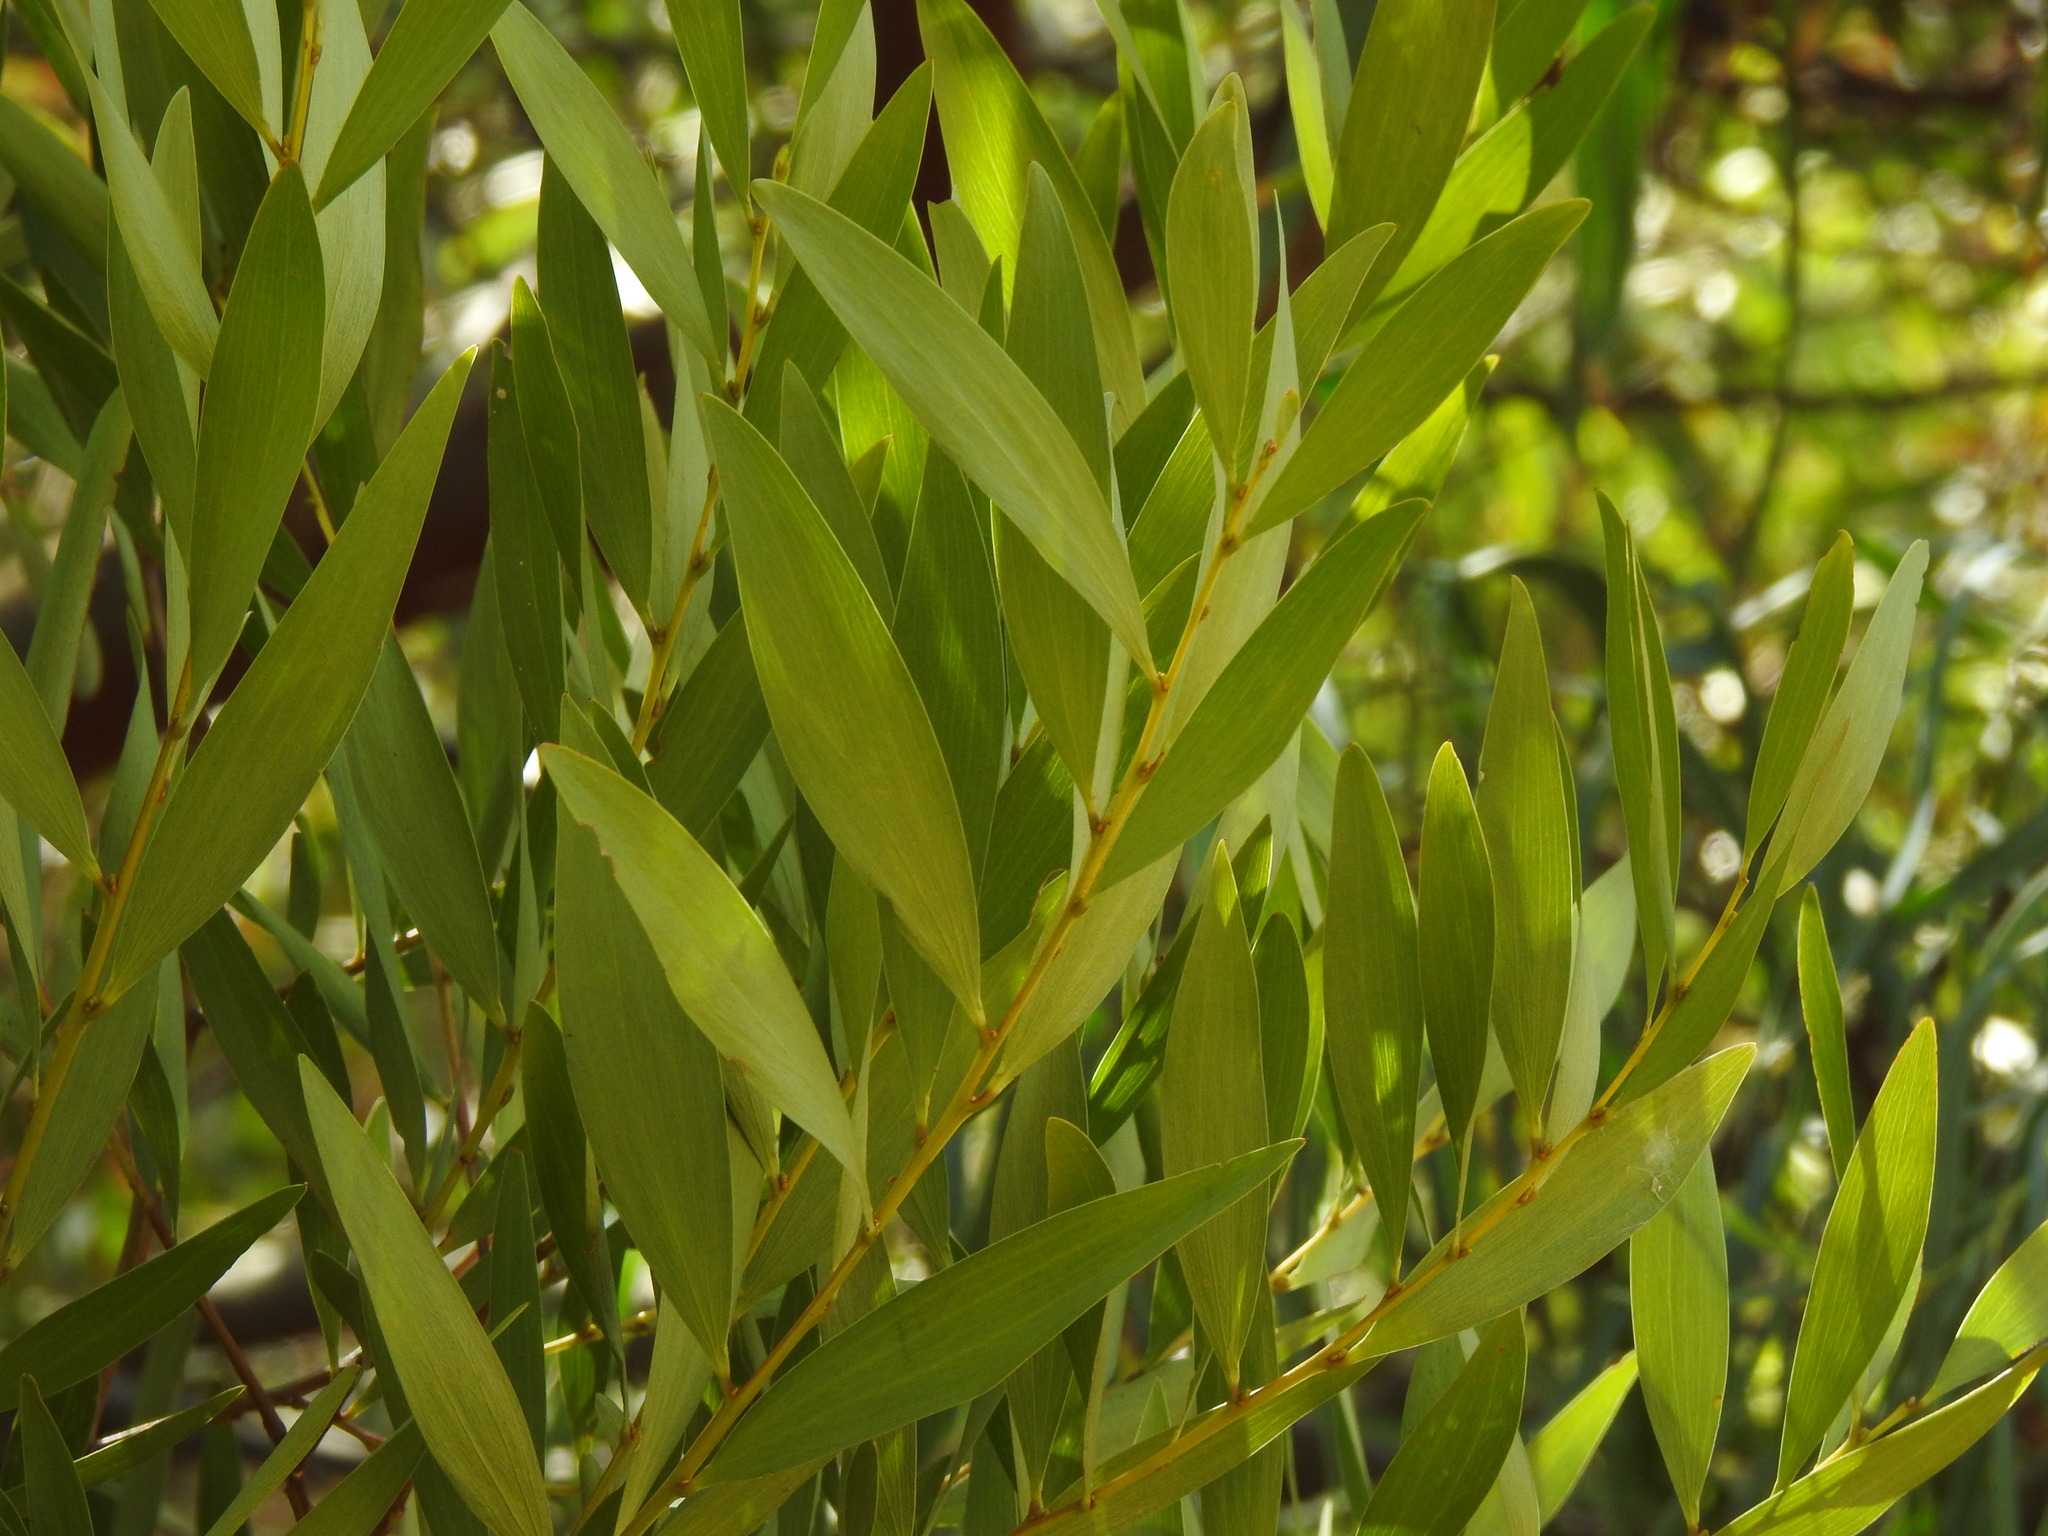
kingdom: Plantae
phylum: Tracheophyta
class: Magnoliopsida
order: Fabales
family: Fabaceae
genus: Acacia
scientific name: Acacia longifolia
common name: Sydney golden wattle
